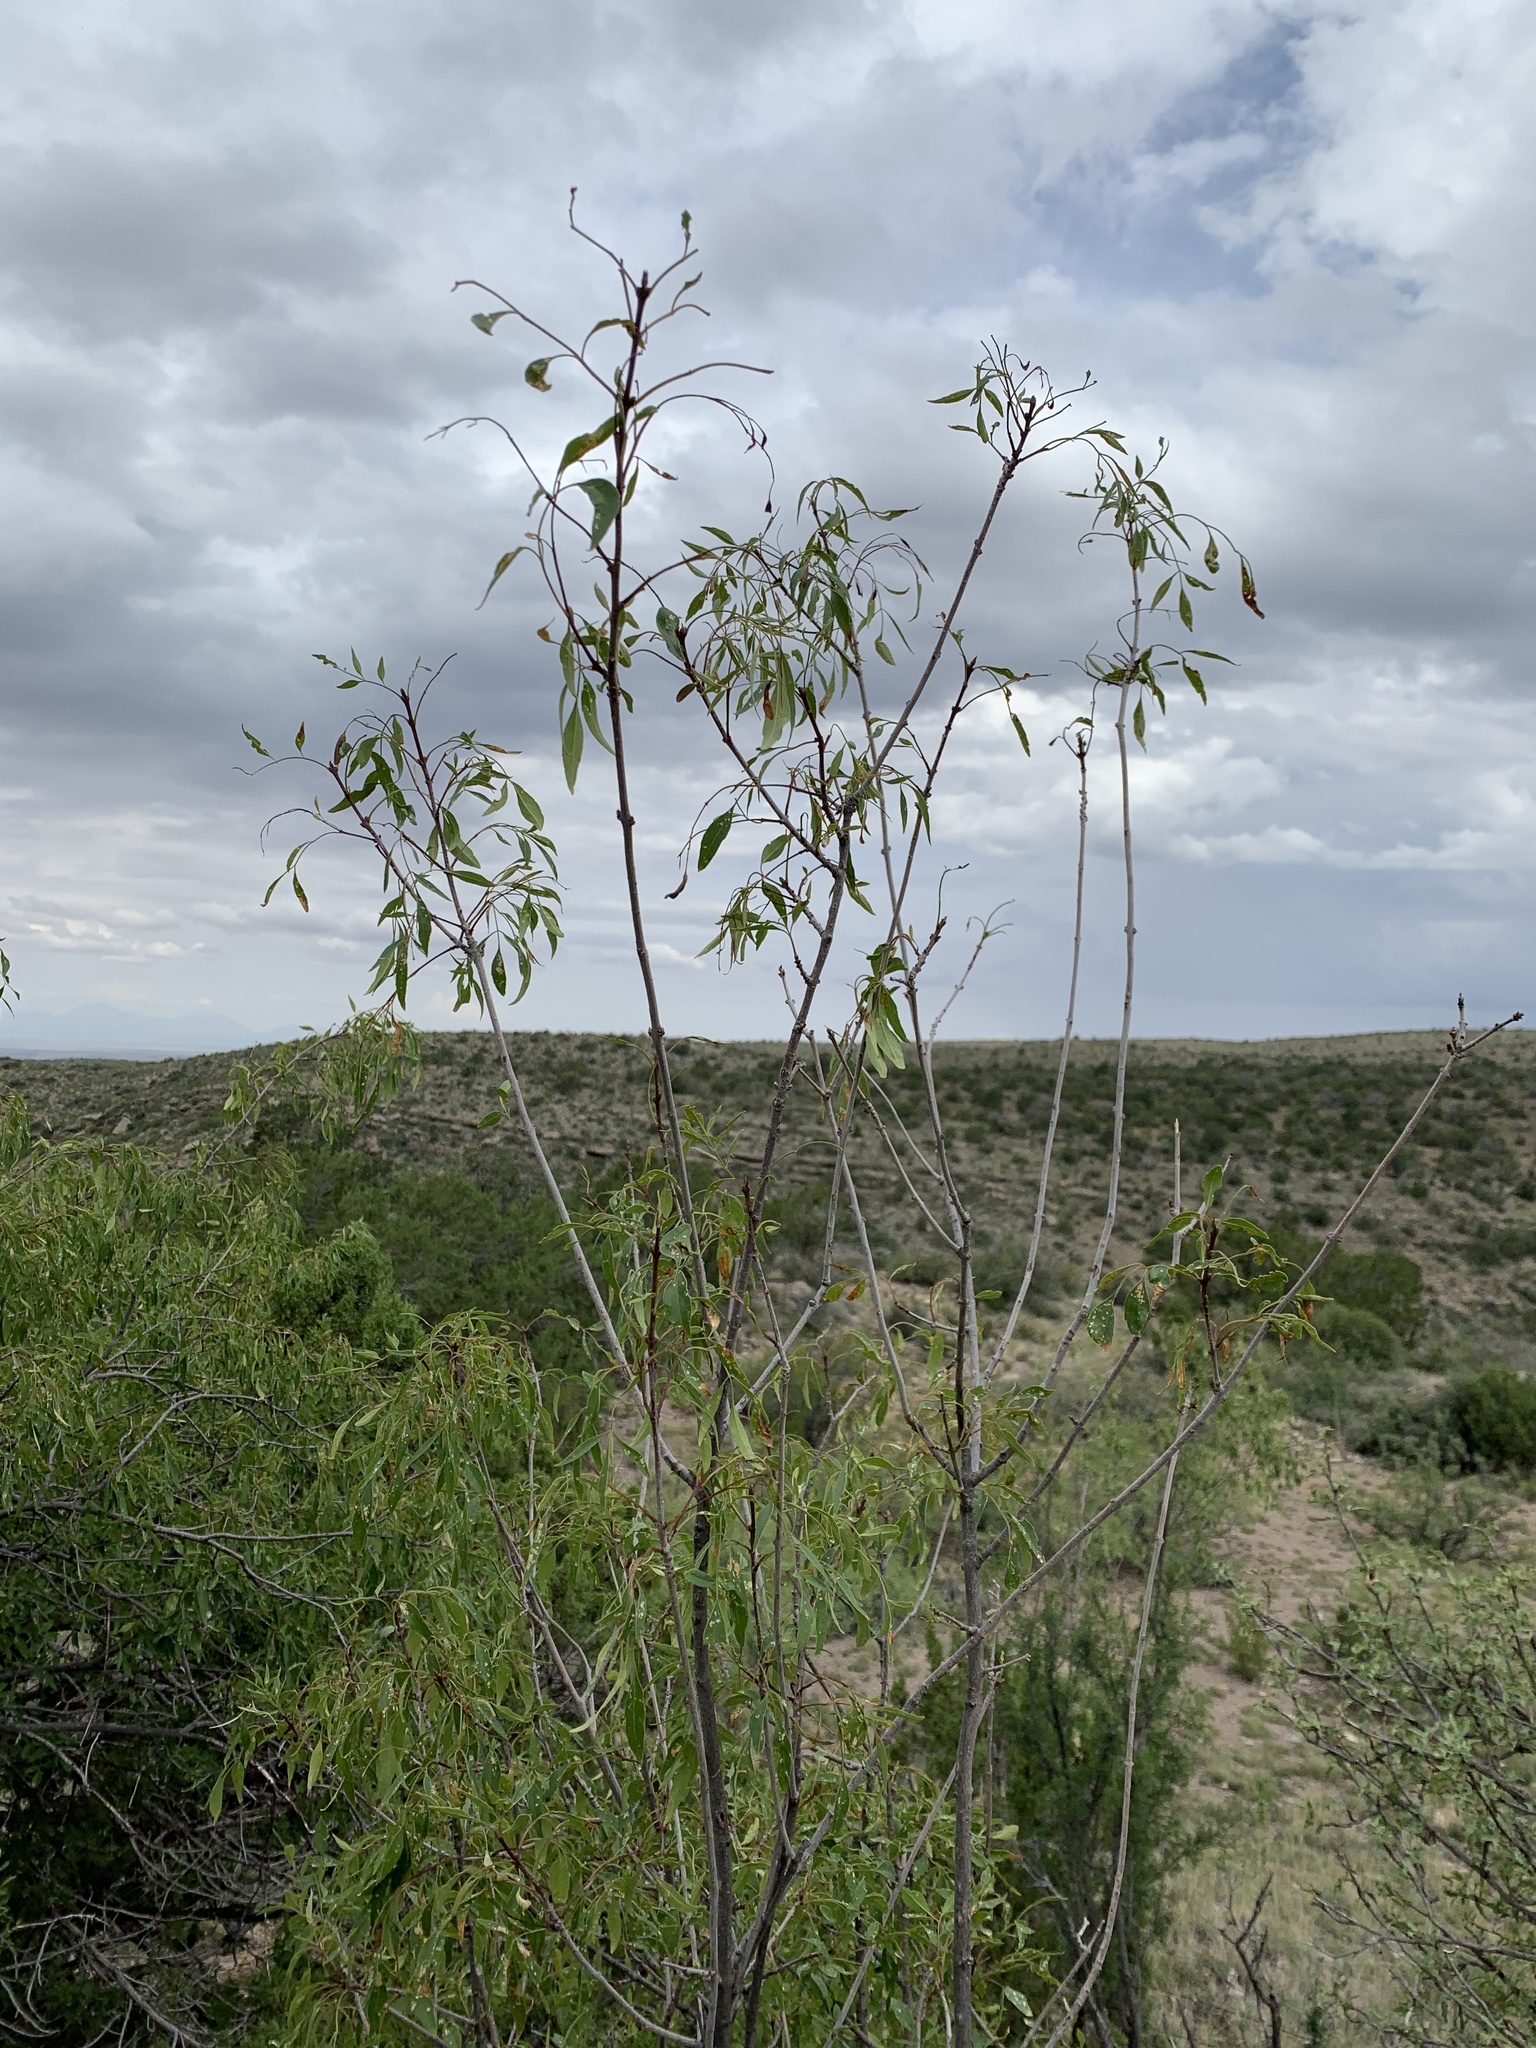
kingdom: Plantae
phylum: Tracheophyta
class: Magnoliopsida
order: Lamiales
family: Oleaceae
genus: Fraxinus
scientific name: Fraxinus cuspidata
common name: Fragrant ash
